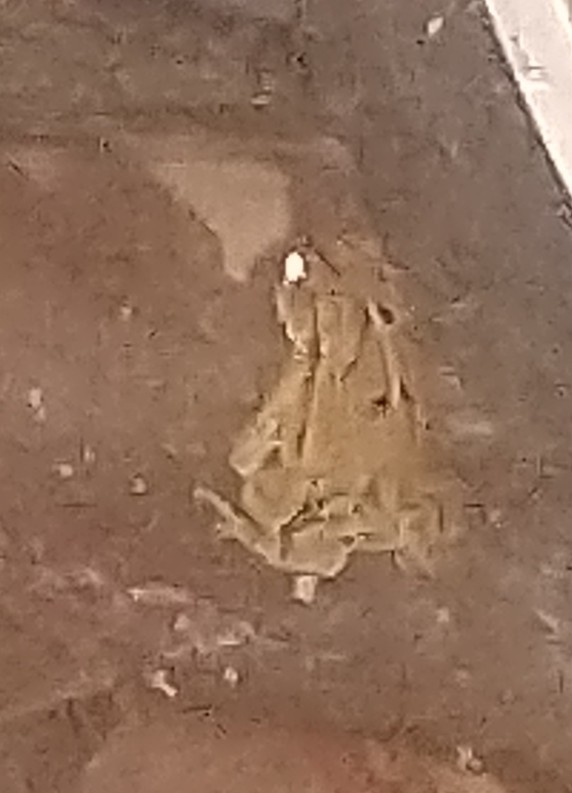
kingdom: Animalia
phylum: Chordata
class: Amphibia
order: Anura
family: Bufonidae
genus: Incilius
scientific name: Incilius valliceps
